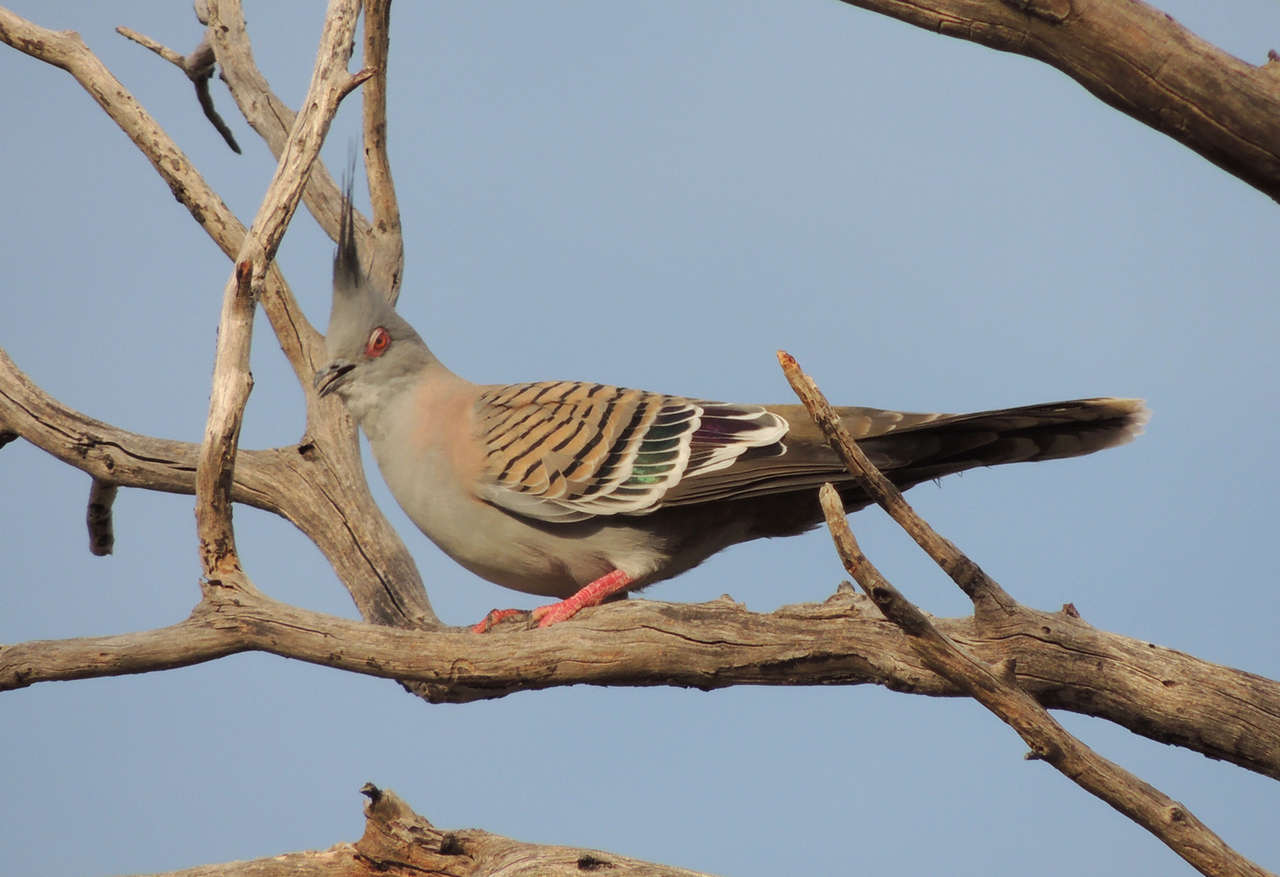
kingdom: Animalia
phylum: Chordata
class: Aves
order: Columbiformes
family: Columbidae
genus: Ocyphaps
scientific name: Ocyphaps lophotes
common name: Crested pigeon
